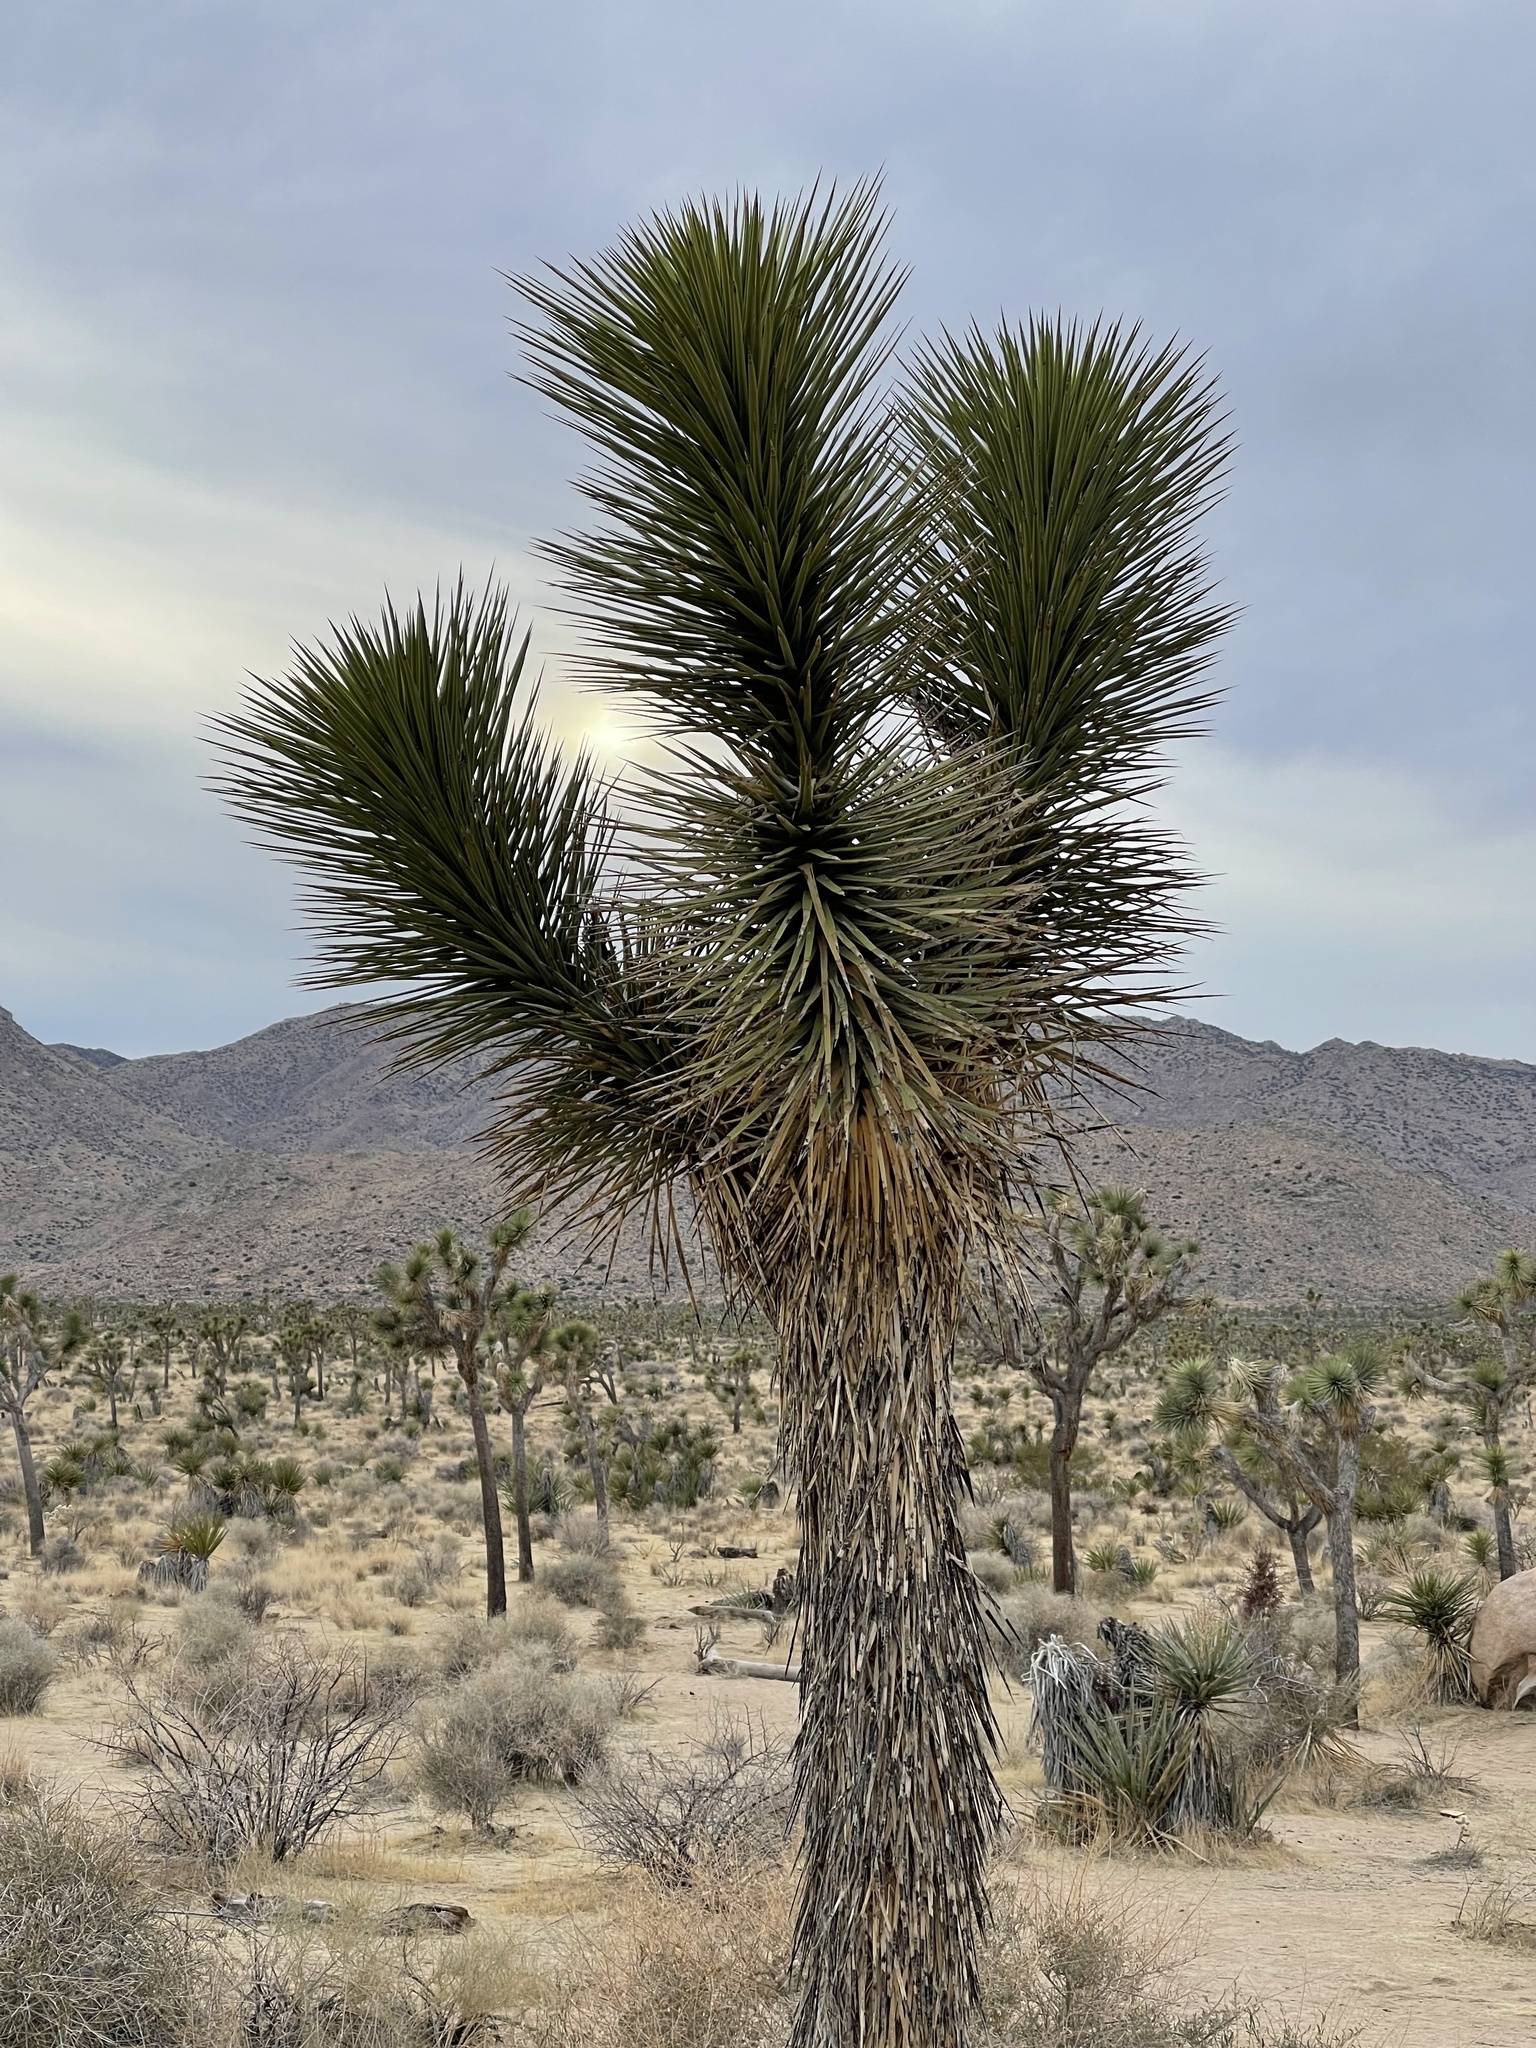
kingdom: Plantae
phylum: Tracheophyta
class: Liliopsida
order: Asparagales
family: Asparagaceae
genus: Yucca
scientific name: Yucca brevifolia
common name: Joshua tree
